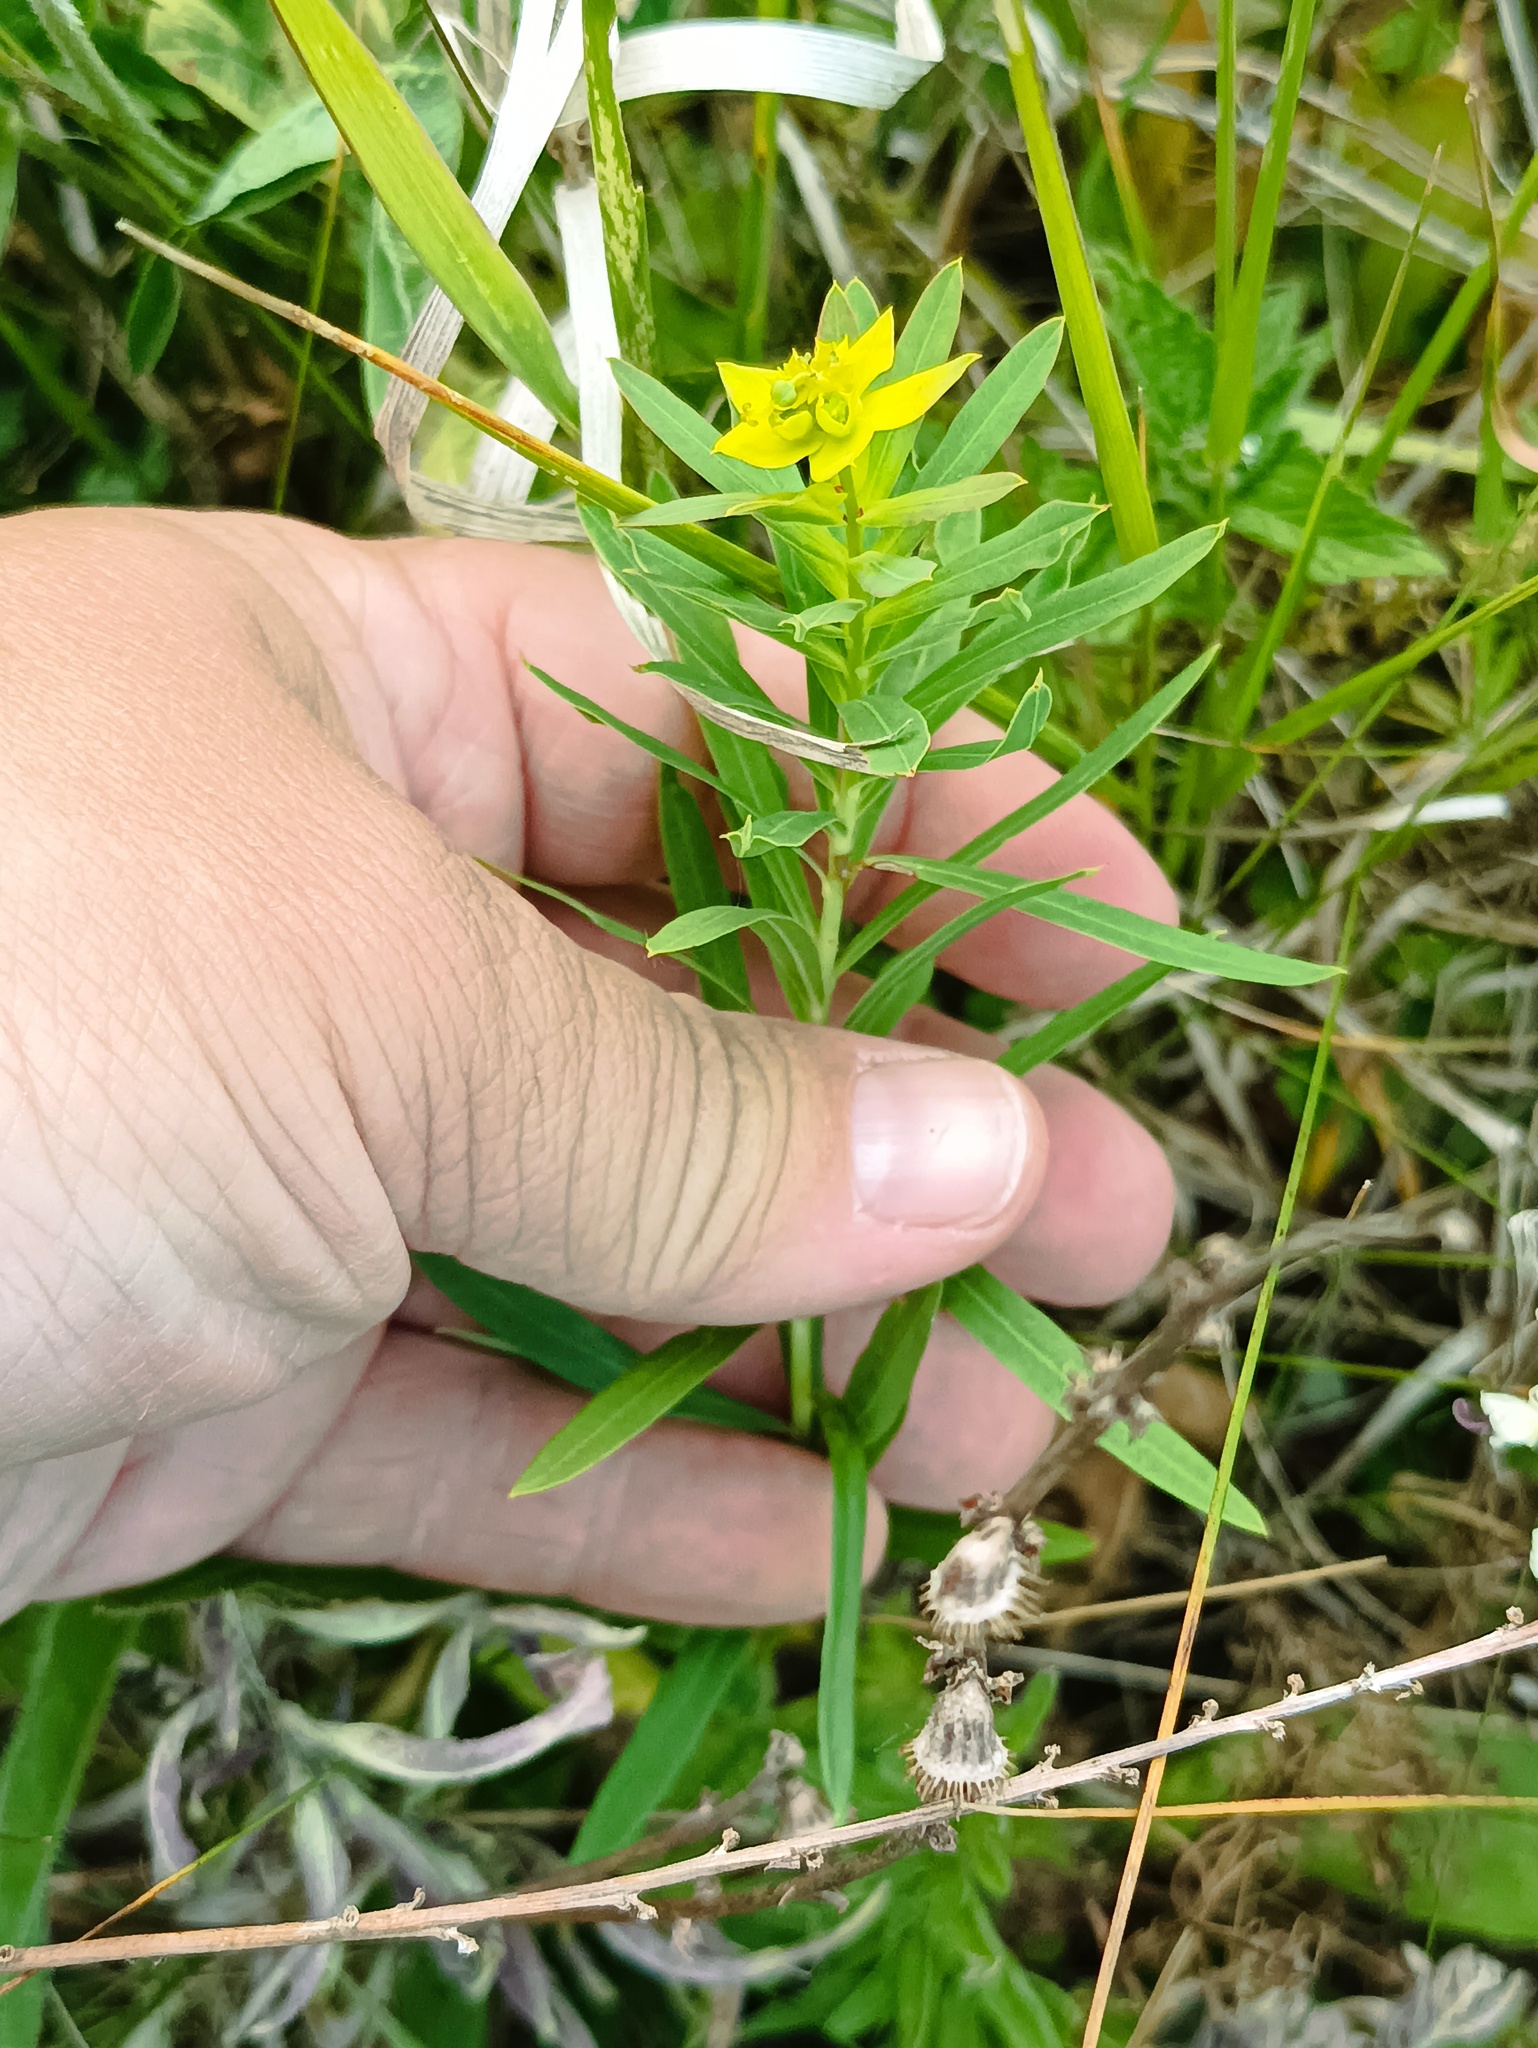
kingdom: Plantae
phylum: Tracheophyta
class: Magnoliopsida
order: Malpighiales
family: Euphorbiaceae
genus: Euphorbia
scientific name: Euphorbia virgata
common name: Leafy spurge
